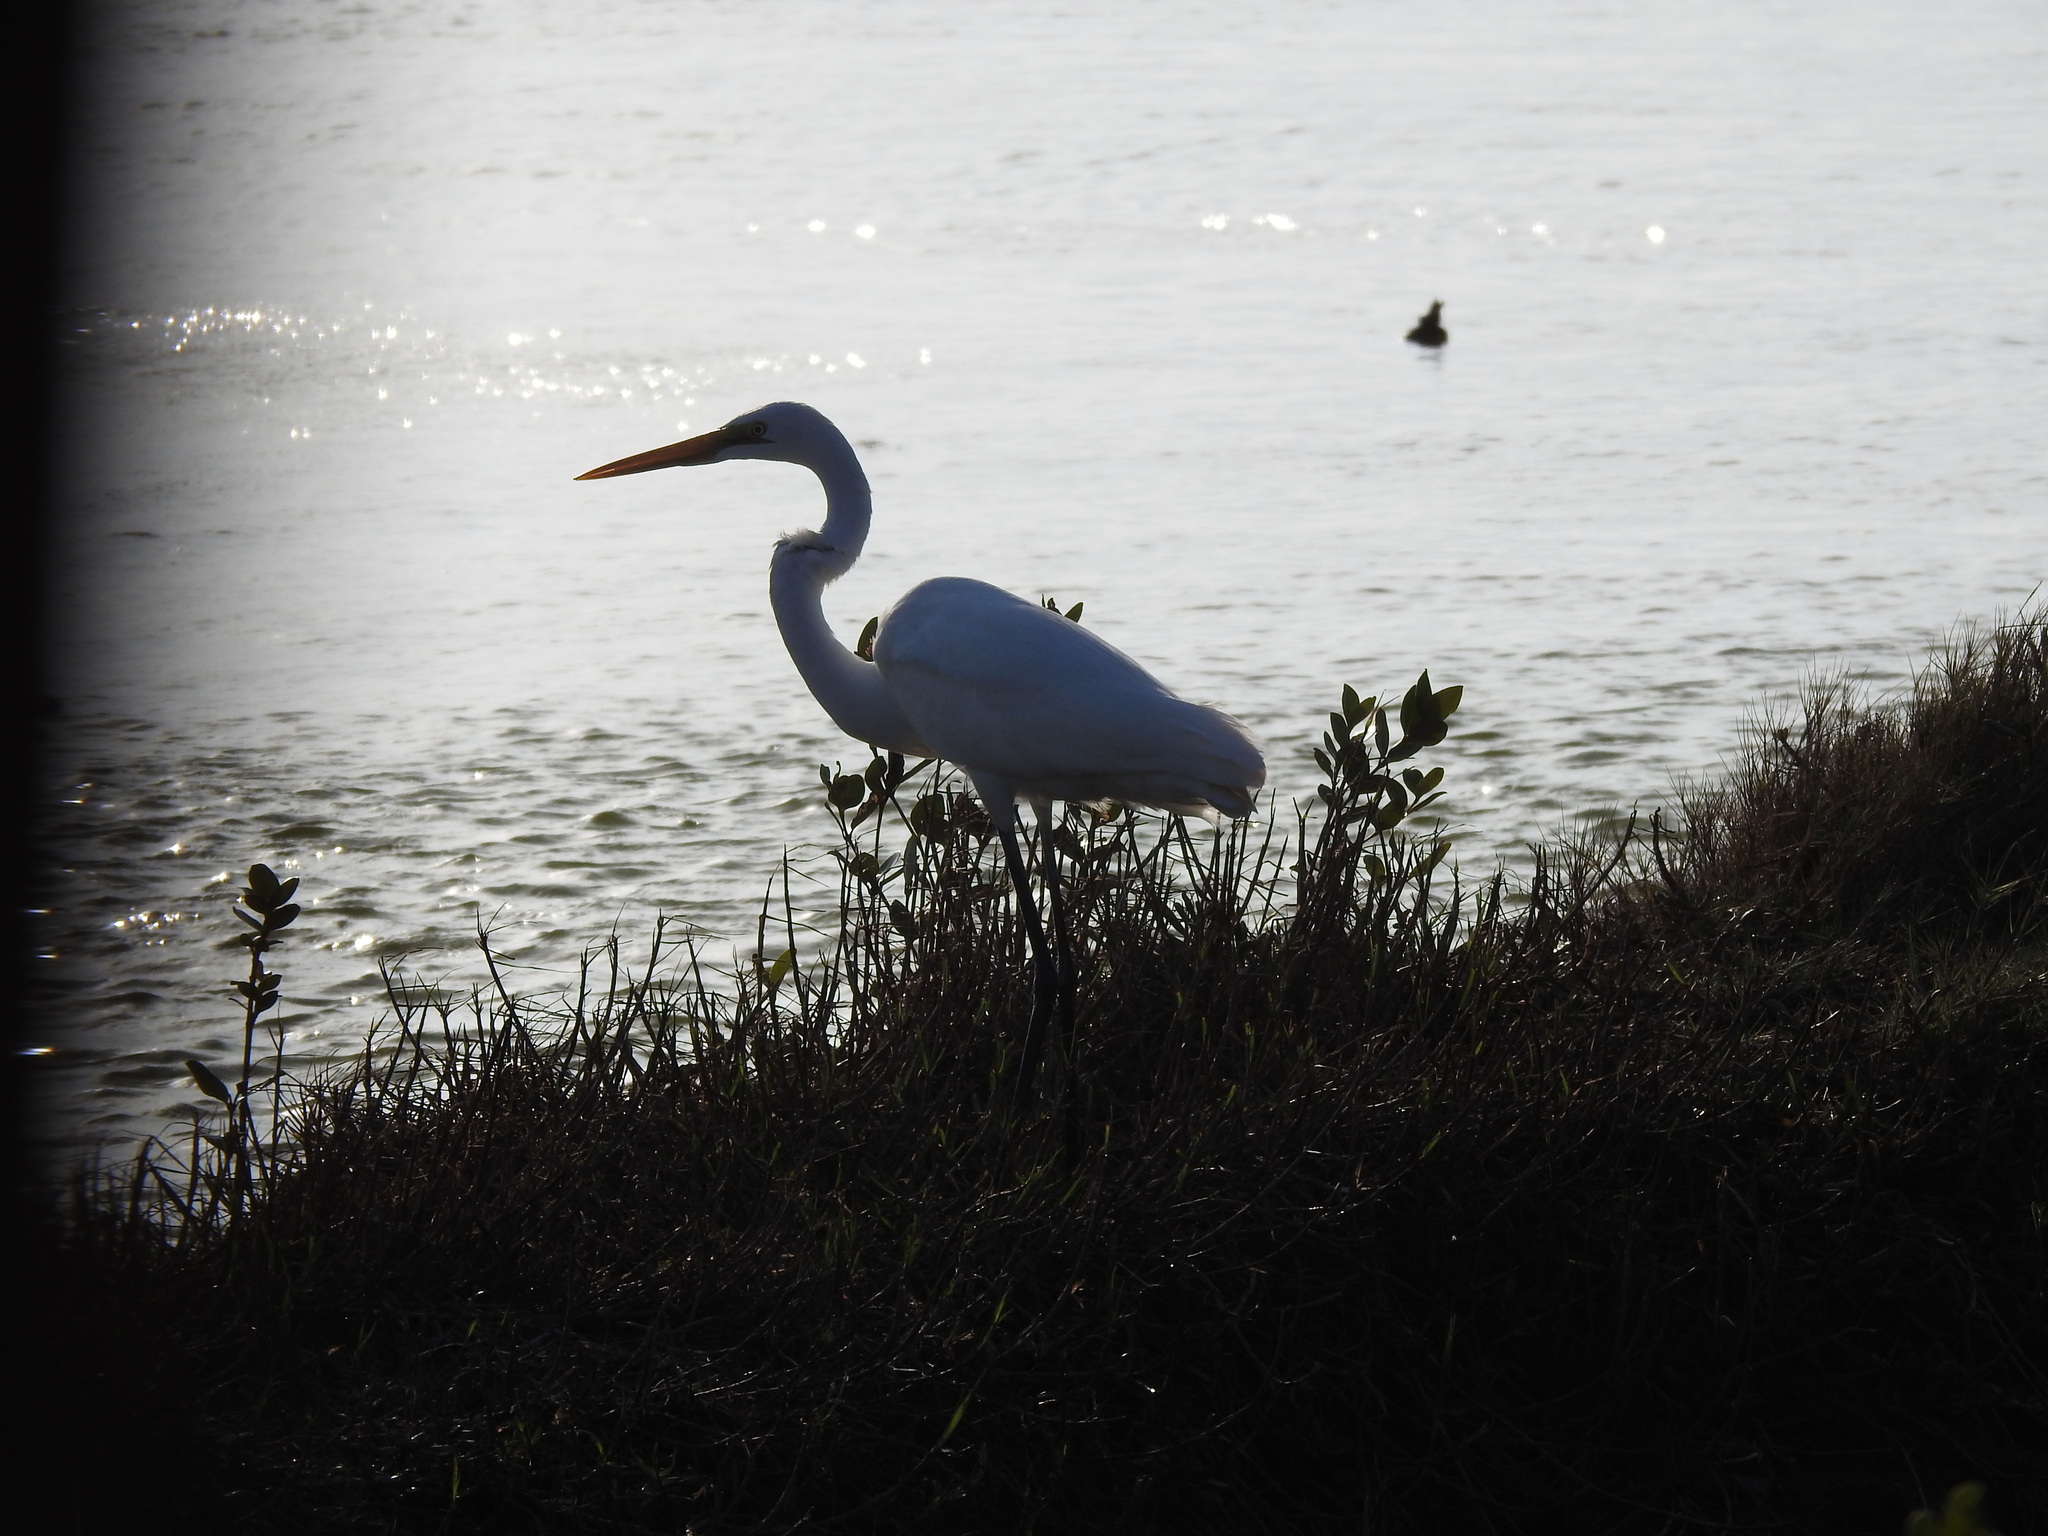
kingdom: Animalia
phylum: Chordata
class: Aves
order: Pelecaniformes
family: Ardeidae
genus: Ardea
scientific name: Ardea alba
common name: Great egret
